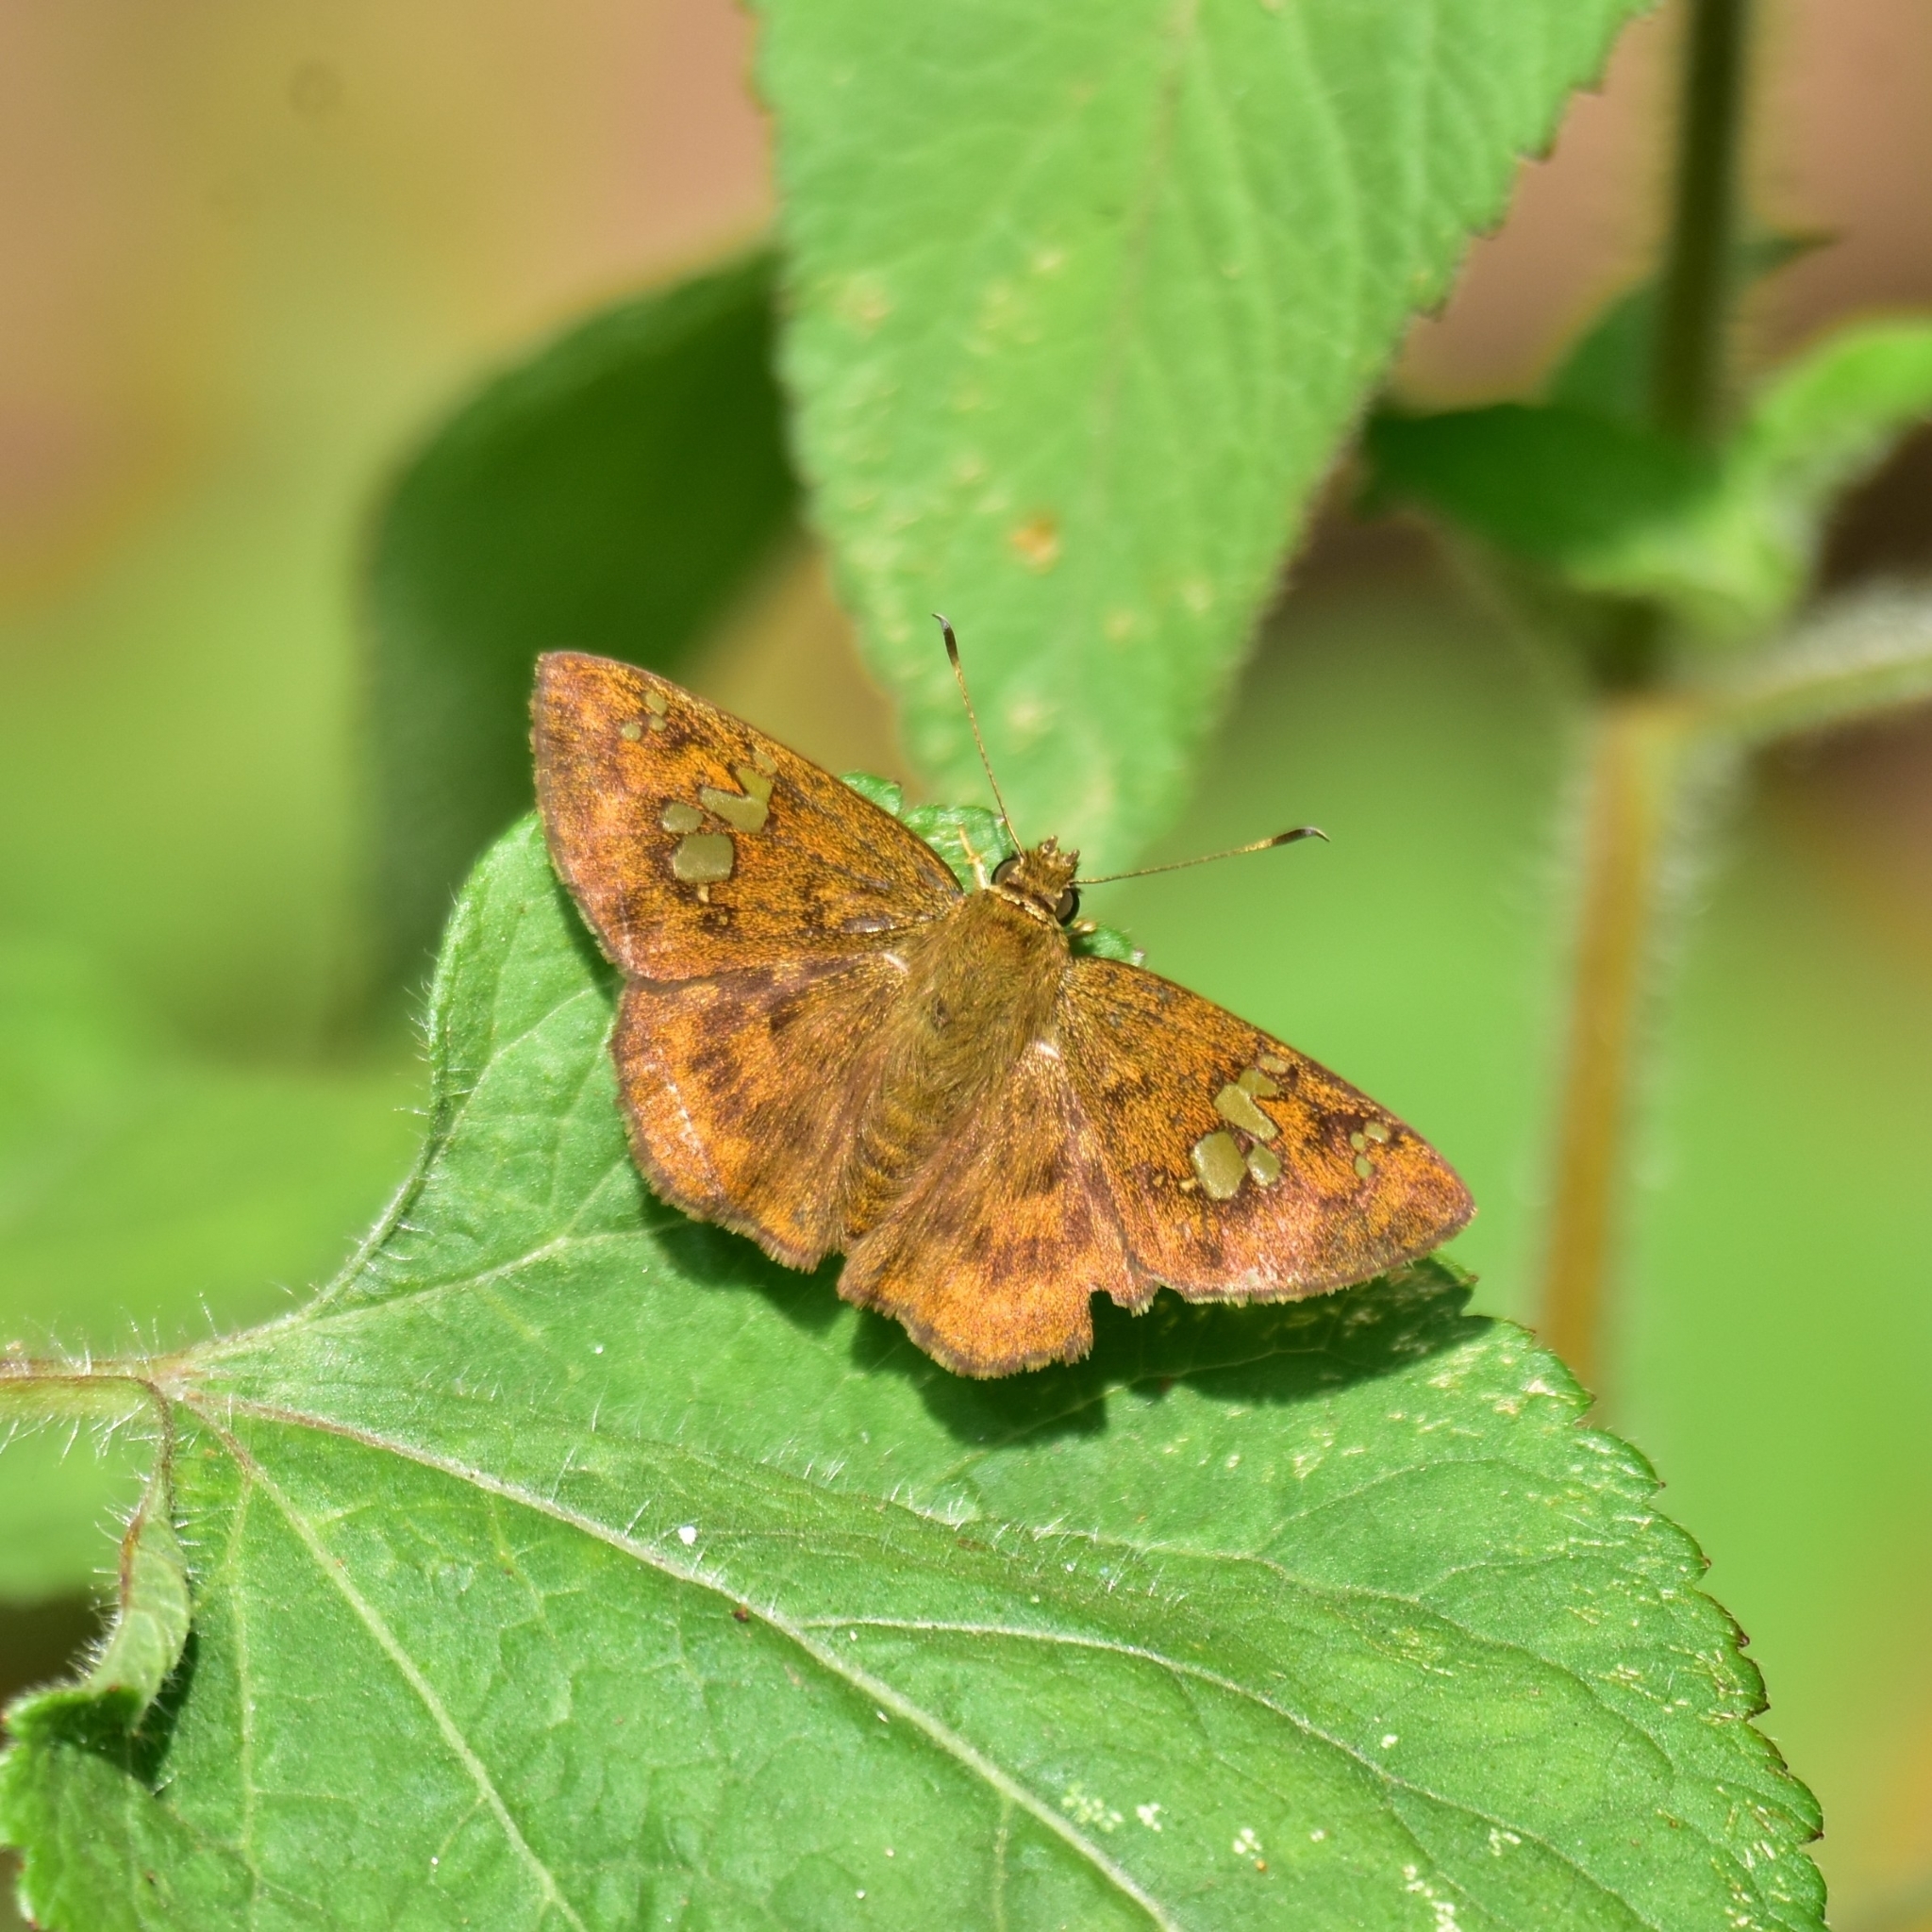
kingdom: Animalia
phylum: Arthropoda
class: Insecta
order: Lepidoptera
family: Hesperiidae
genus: Pseudocoladenia
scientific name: Pseudocoladenia dan
